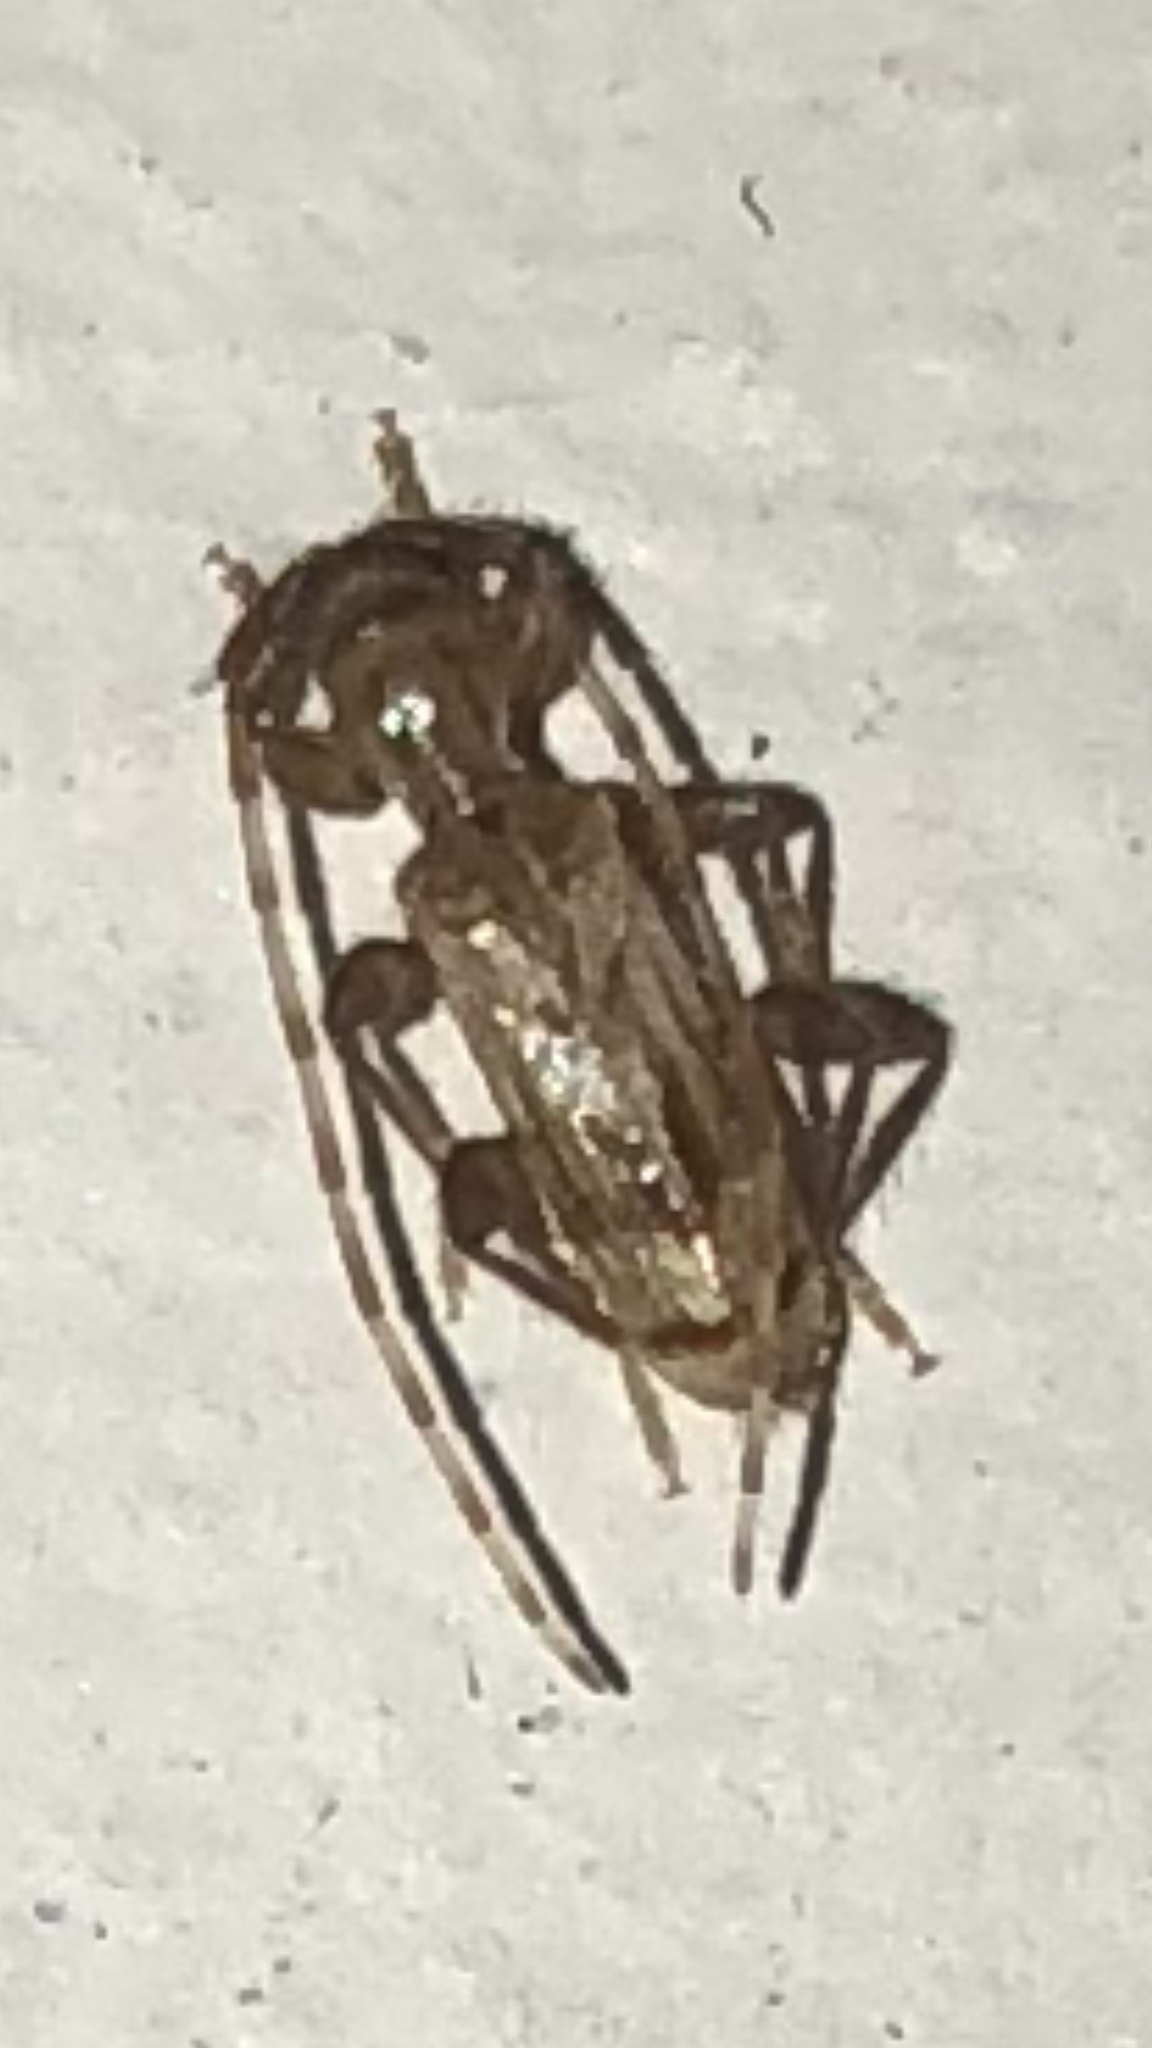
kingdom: Animalia
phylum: Arthropoda
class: Insecta
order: Coleoptera
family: Cerambycidae
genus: Obrium
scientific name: Obrium maculatum
